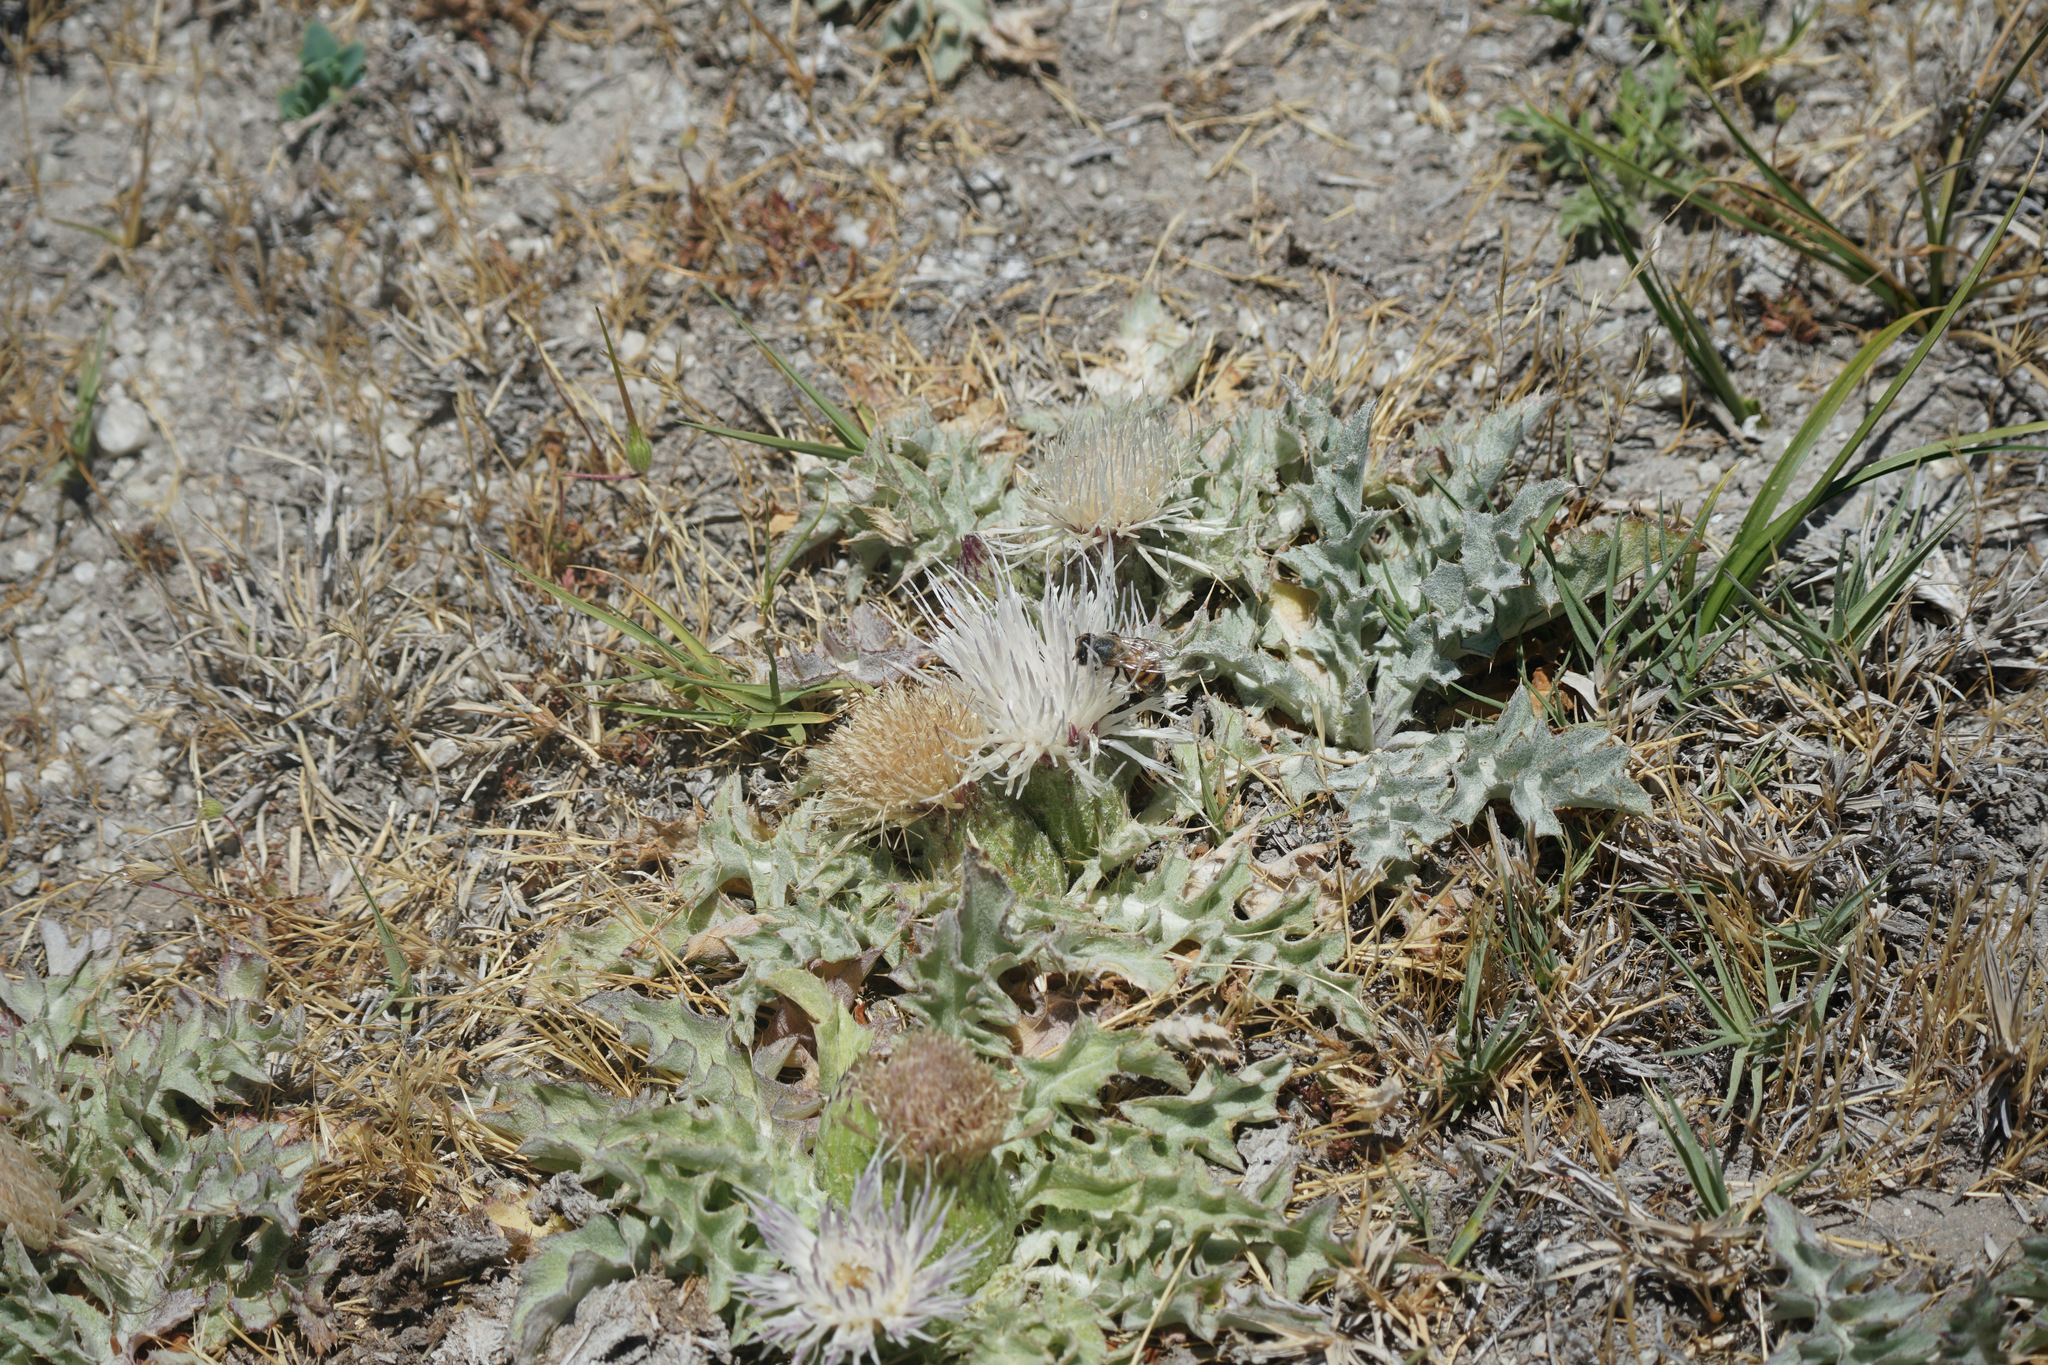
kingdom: Plantae
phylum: Tracheophyta
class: Magnoliopsida
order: Asterales
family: Asteraceae
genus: Cirsium
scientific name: Cirsium tioganum
